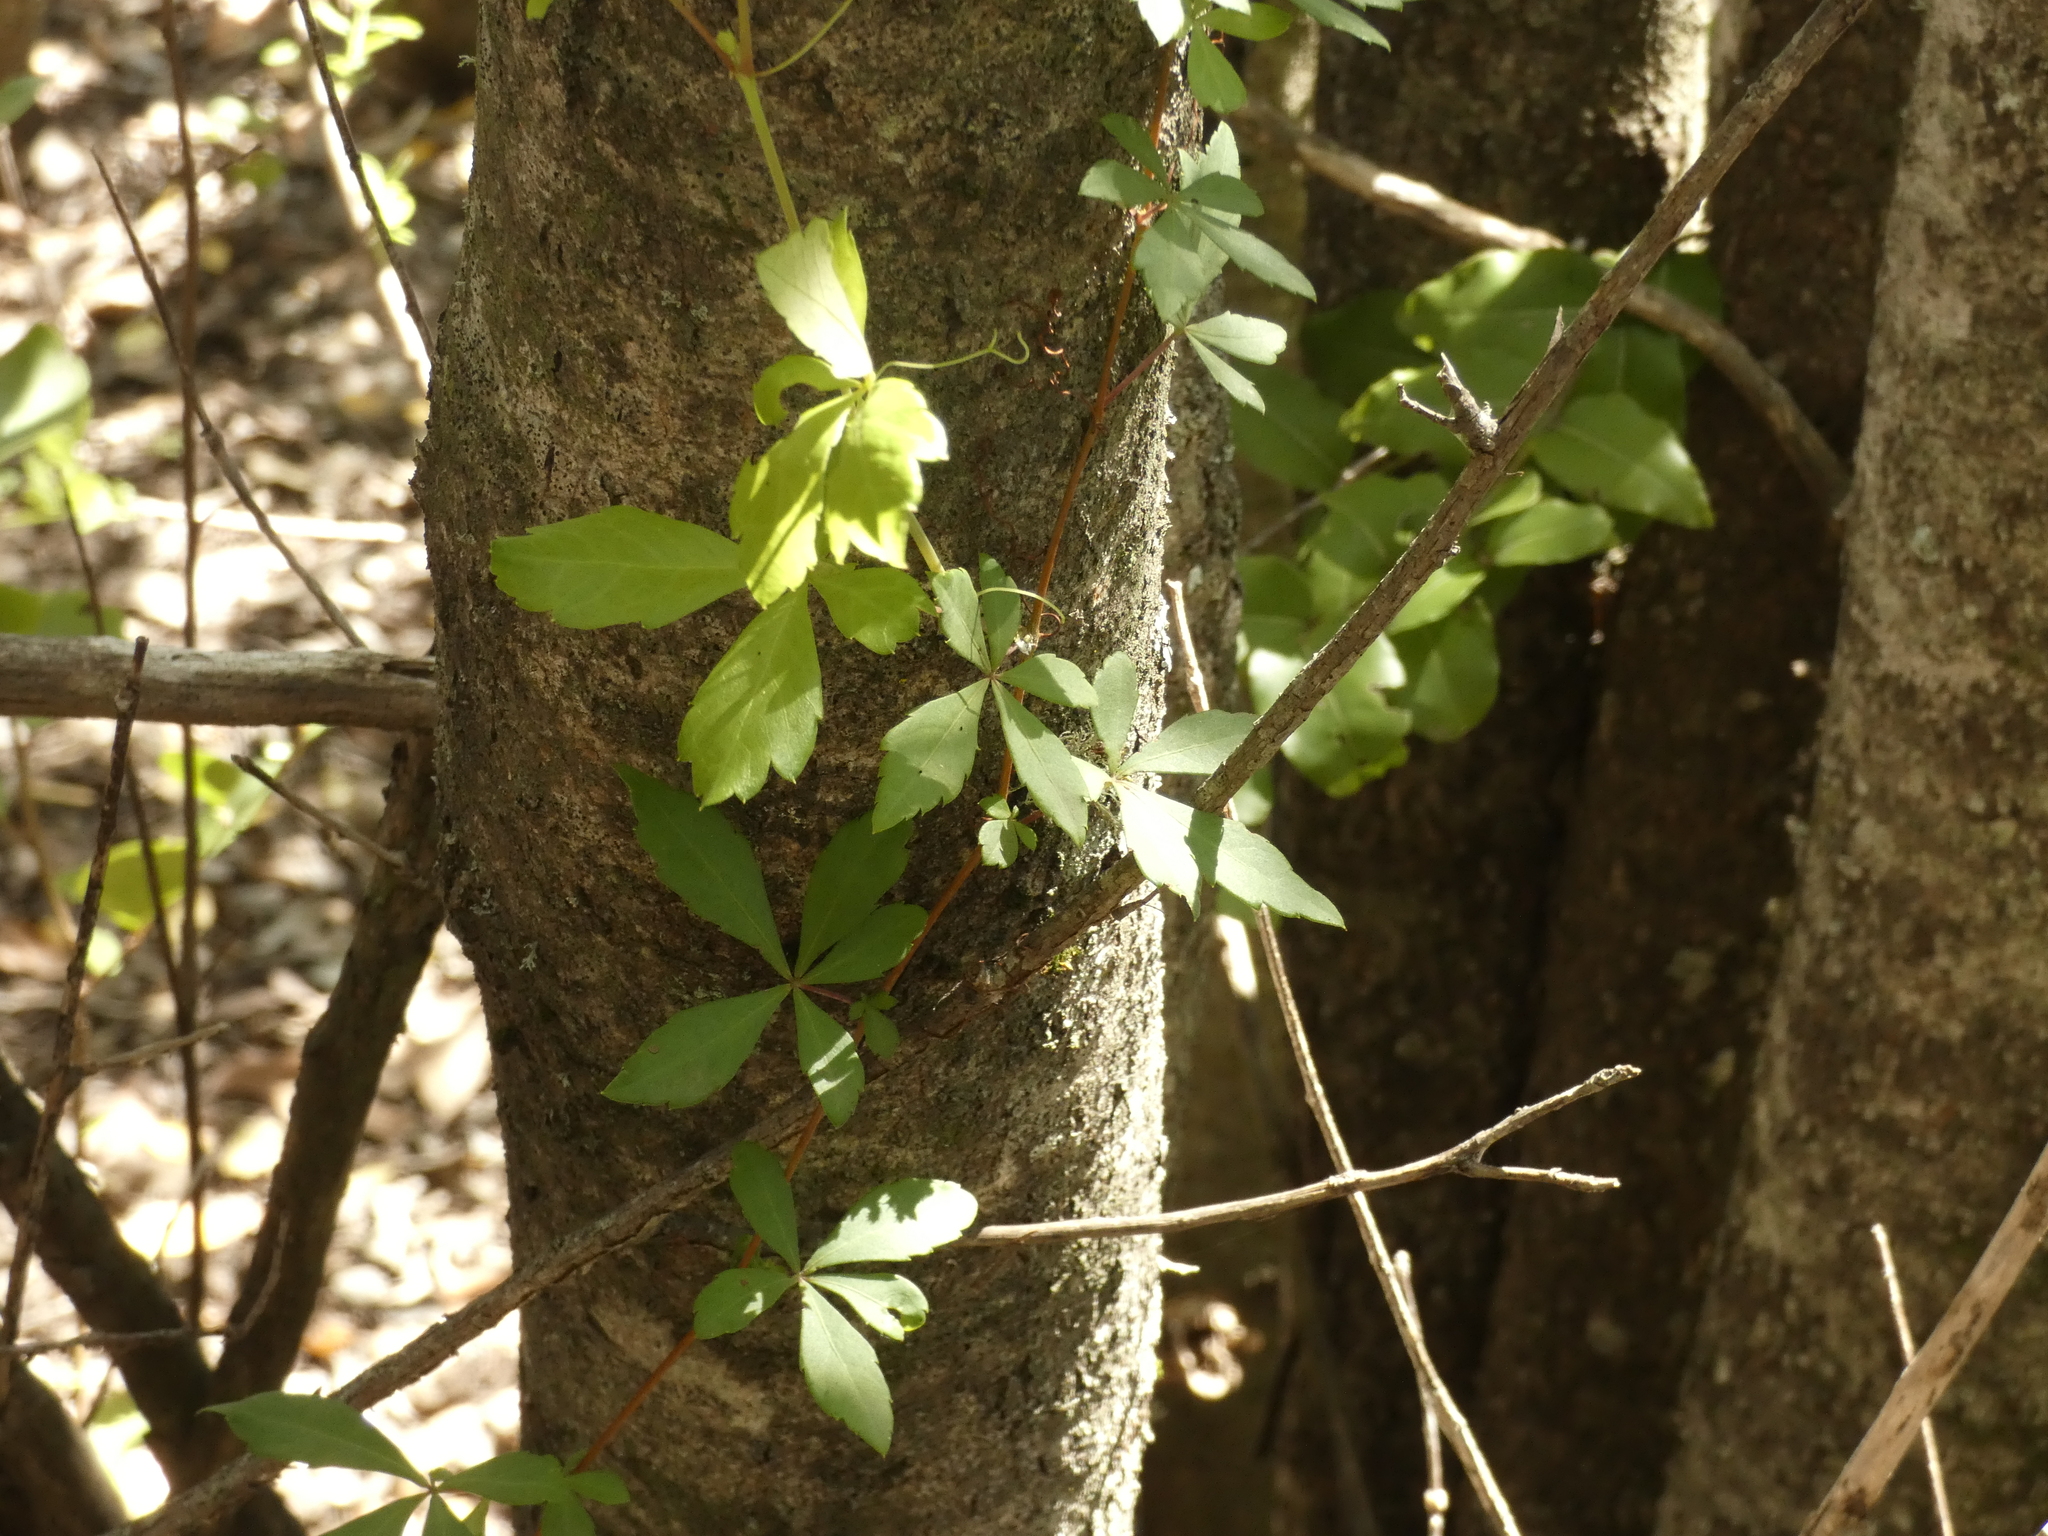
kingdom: Plantae
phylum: Tracheophyta
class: Magnoliopsida
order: Vitales
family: Vitaceae
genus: Clematicissus
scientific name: Clematicissus striata
